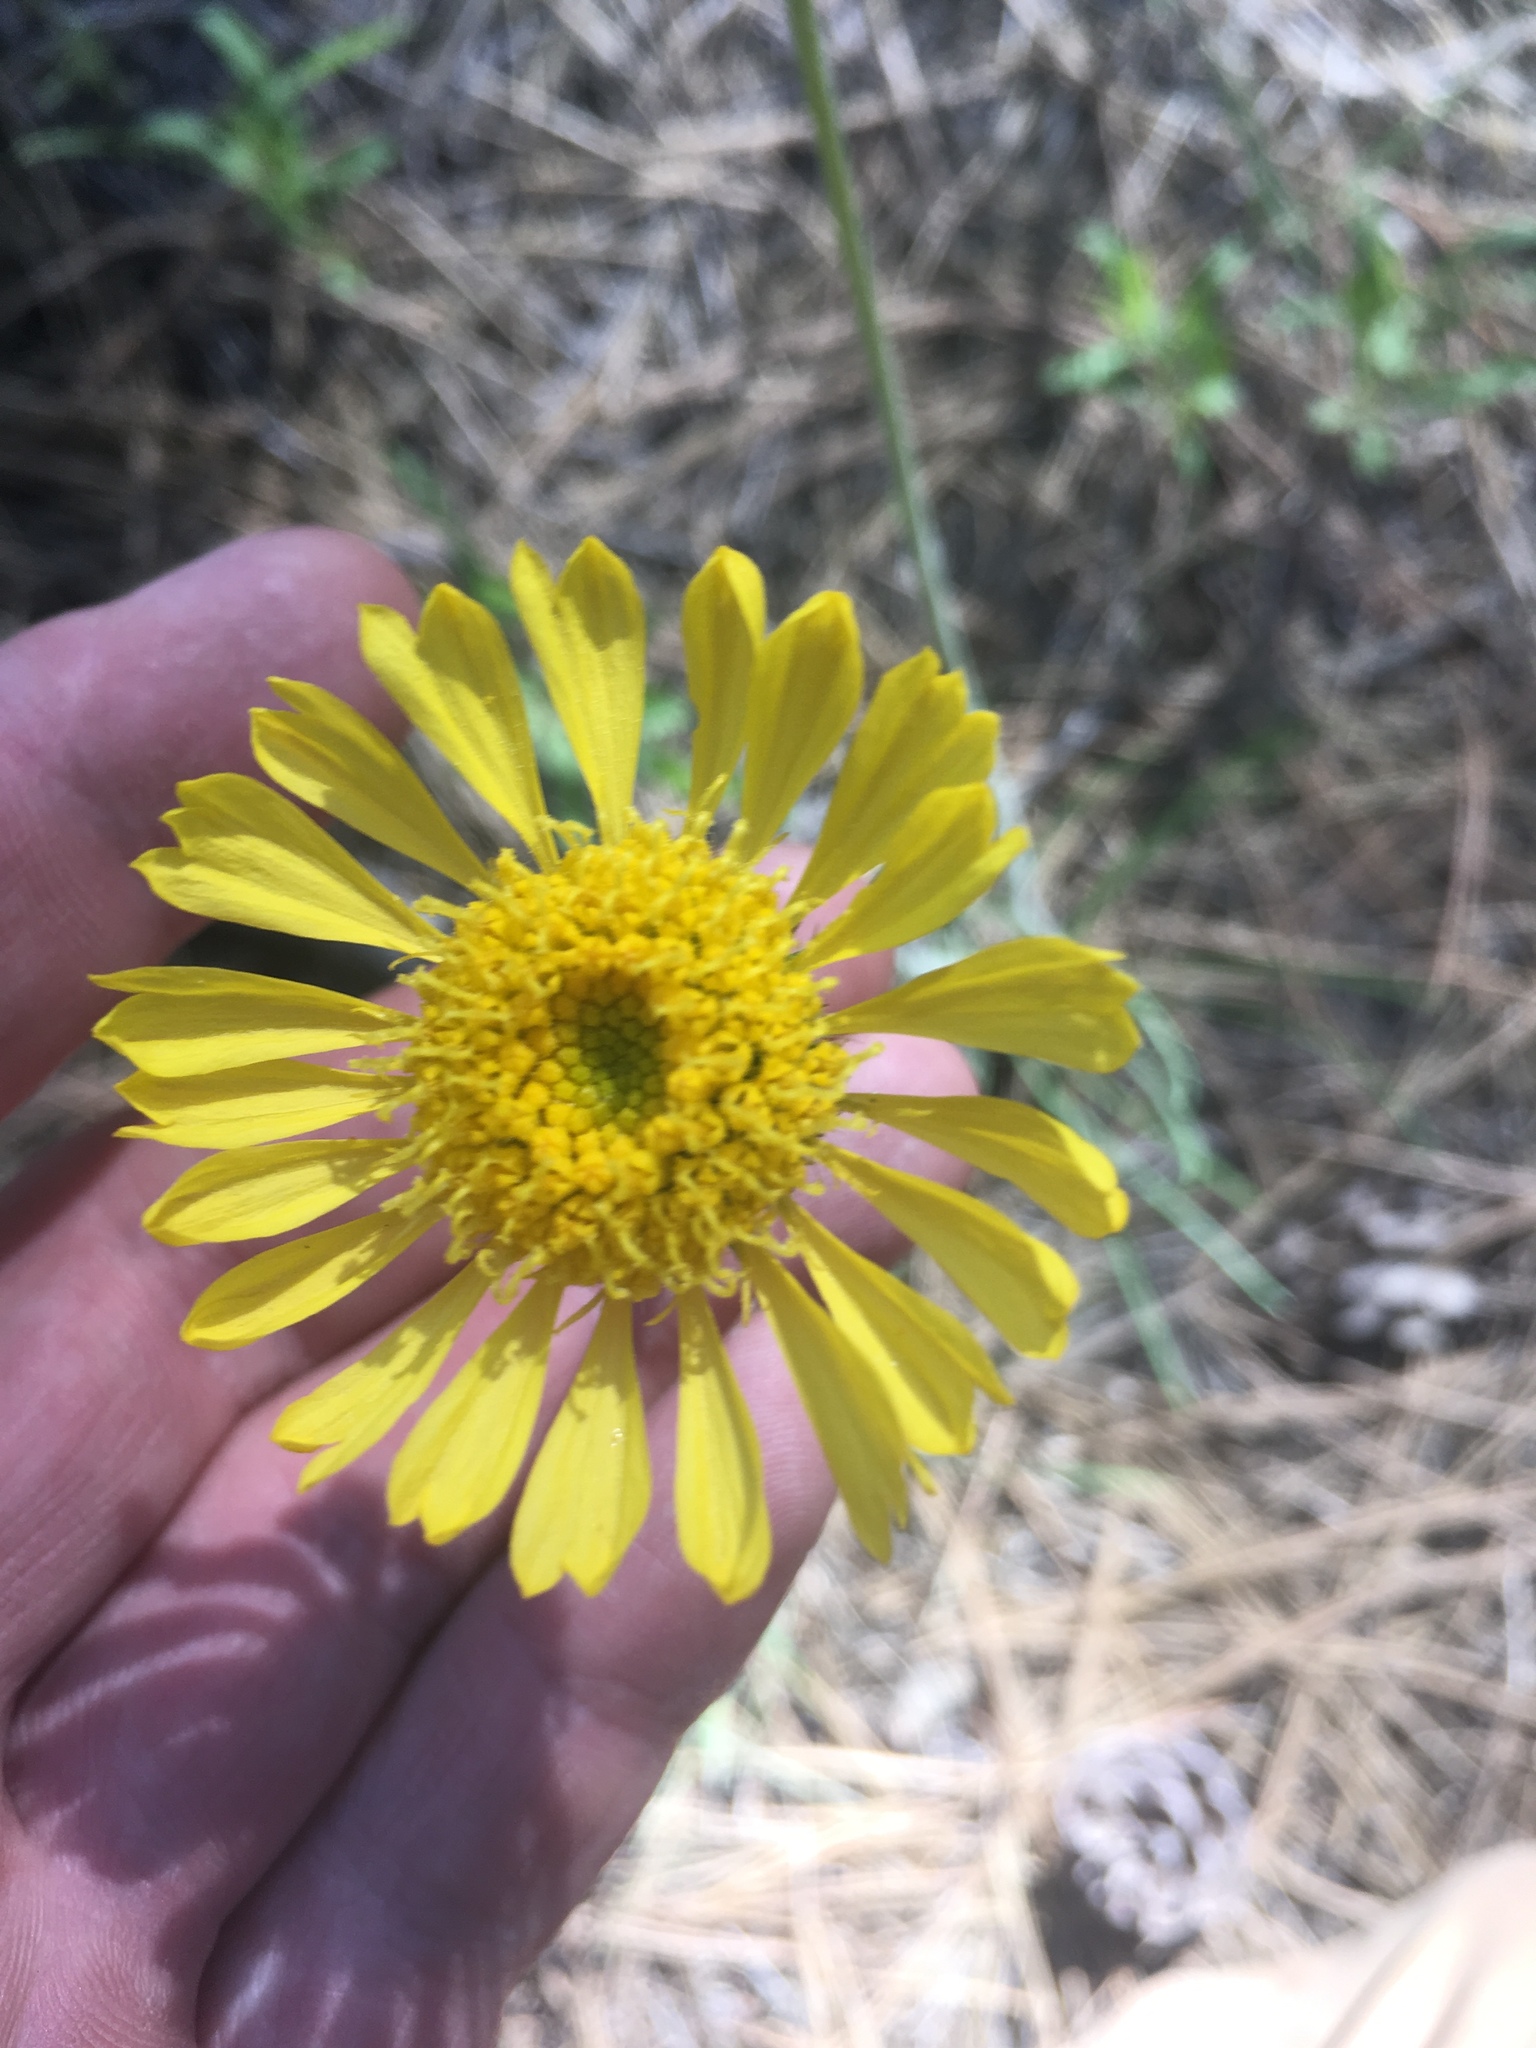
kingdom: Plantae
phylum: Tracheophyta
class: Magnoliopsida
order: Asterales
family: Asteraceae
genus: Hymenoxys
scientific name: Hymenoxys bigelovii
